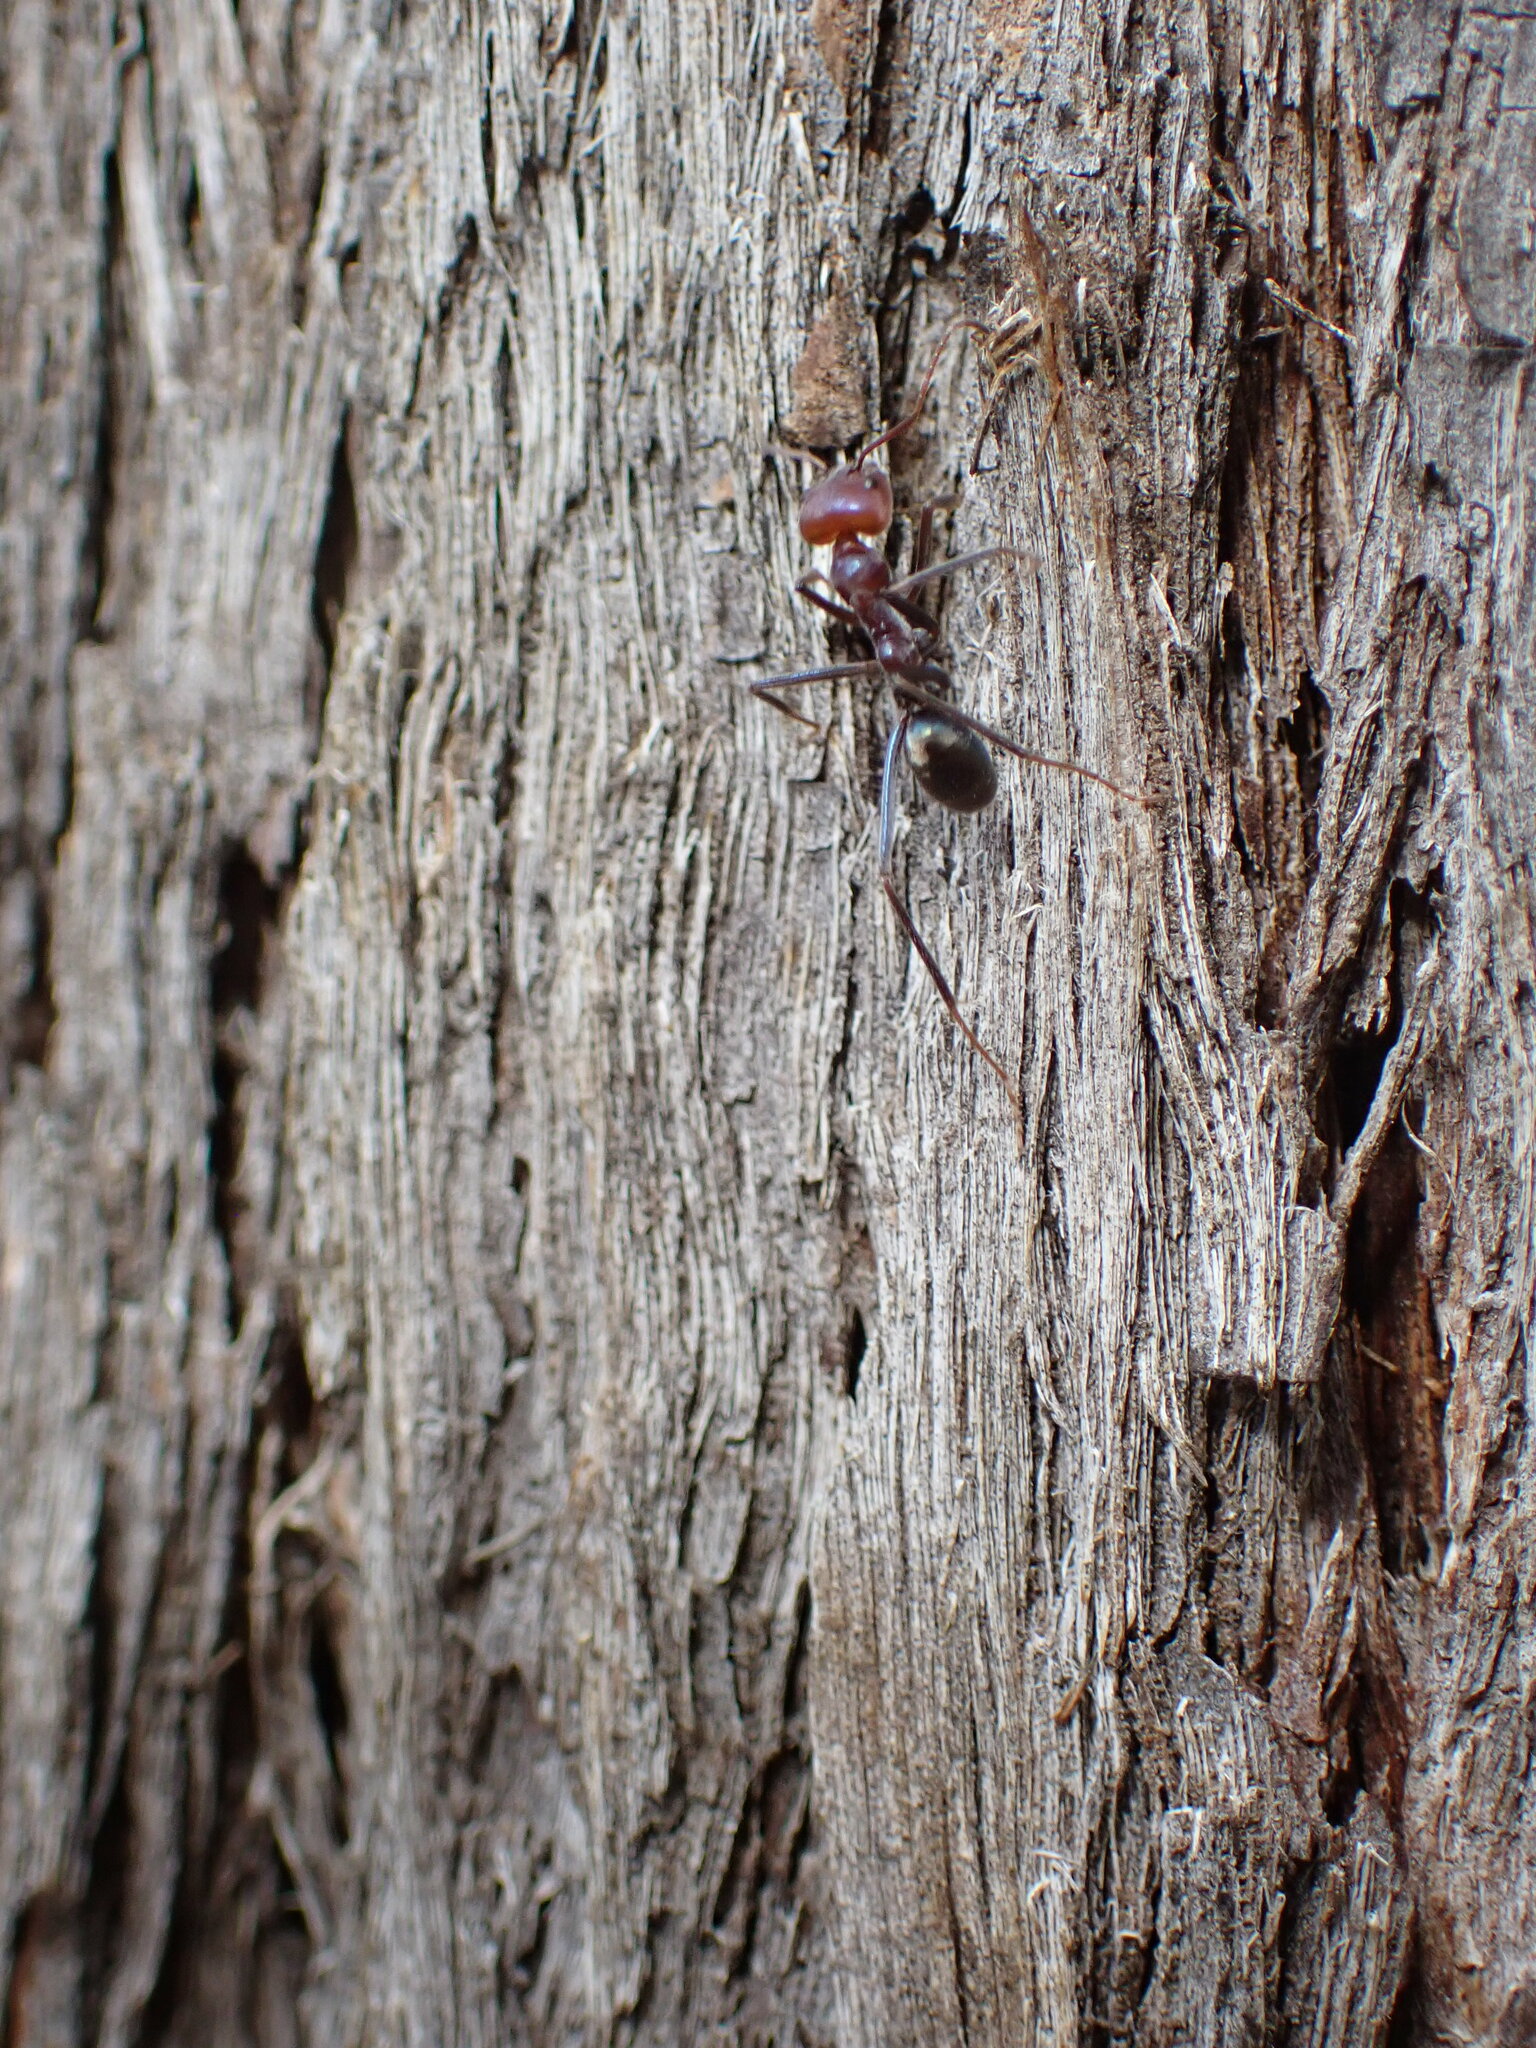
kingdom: Animalia
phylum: Arthropoda
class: Insecta
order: Hymenoptera
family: Formicidae
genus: Iridomyrmex
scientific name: Iridomyrmex purpureus
